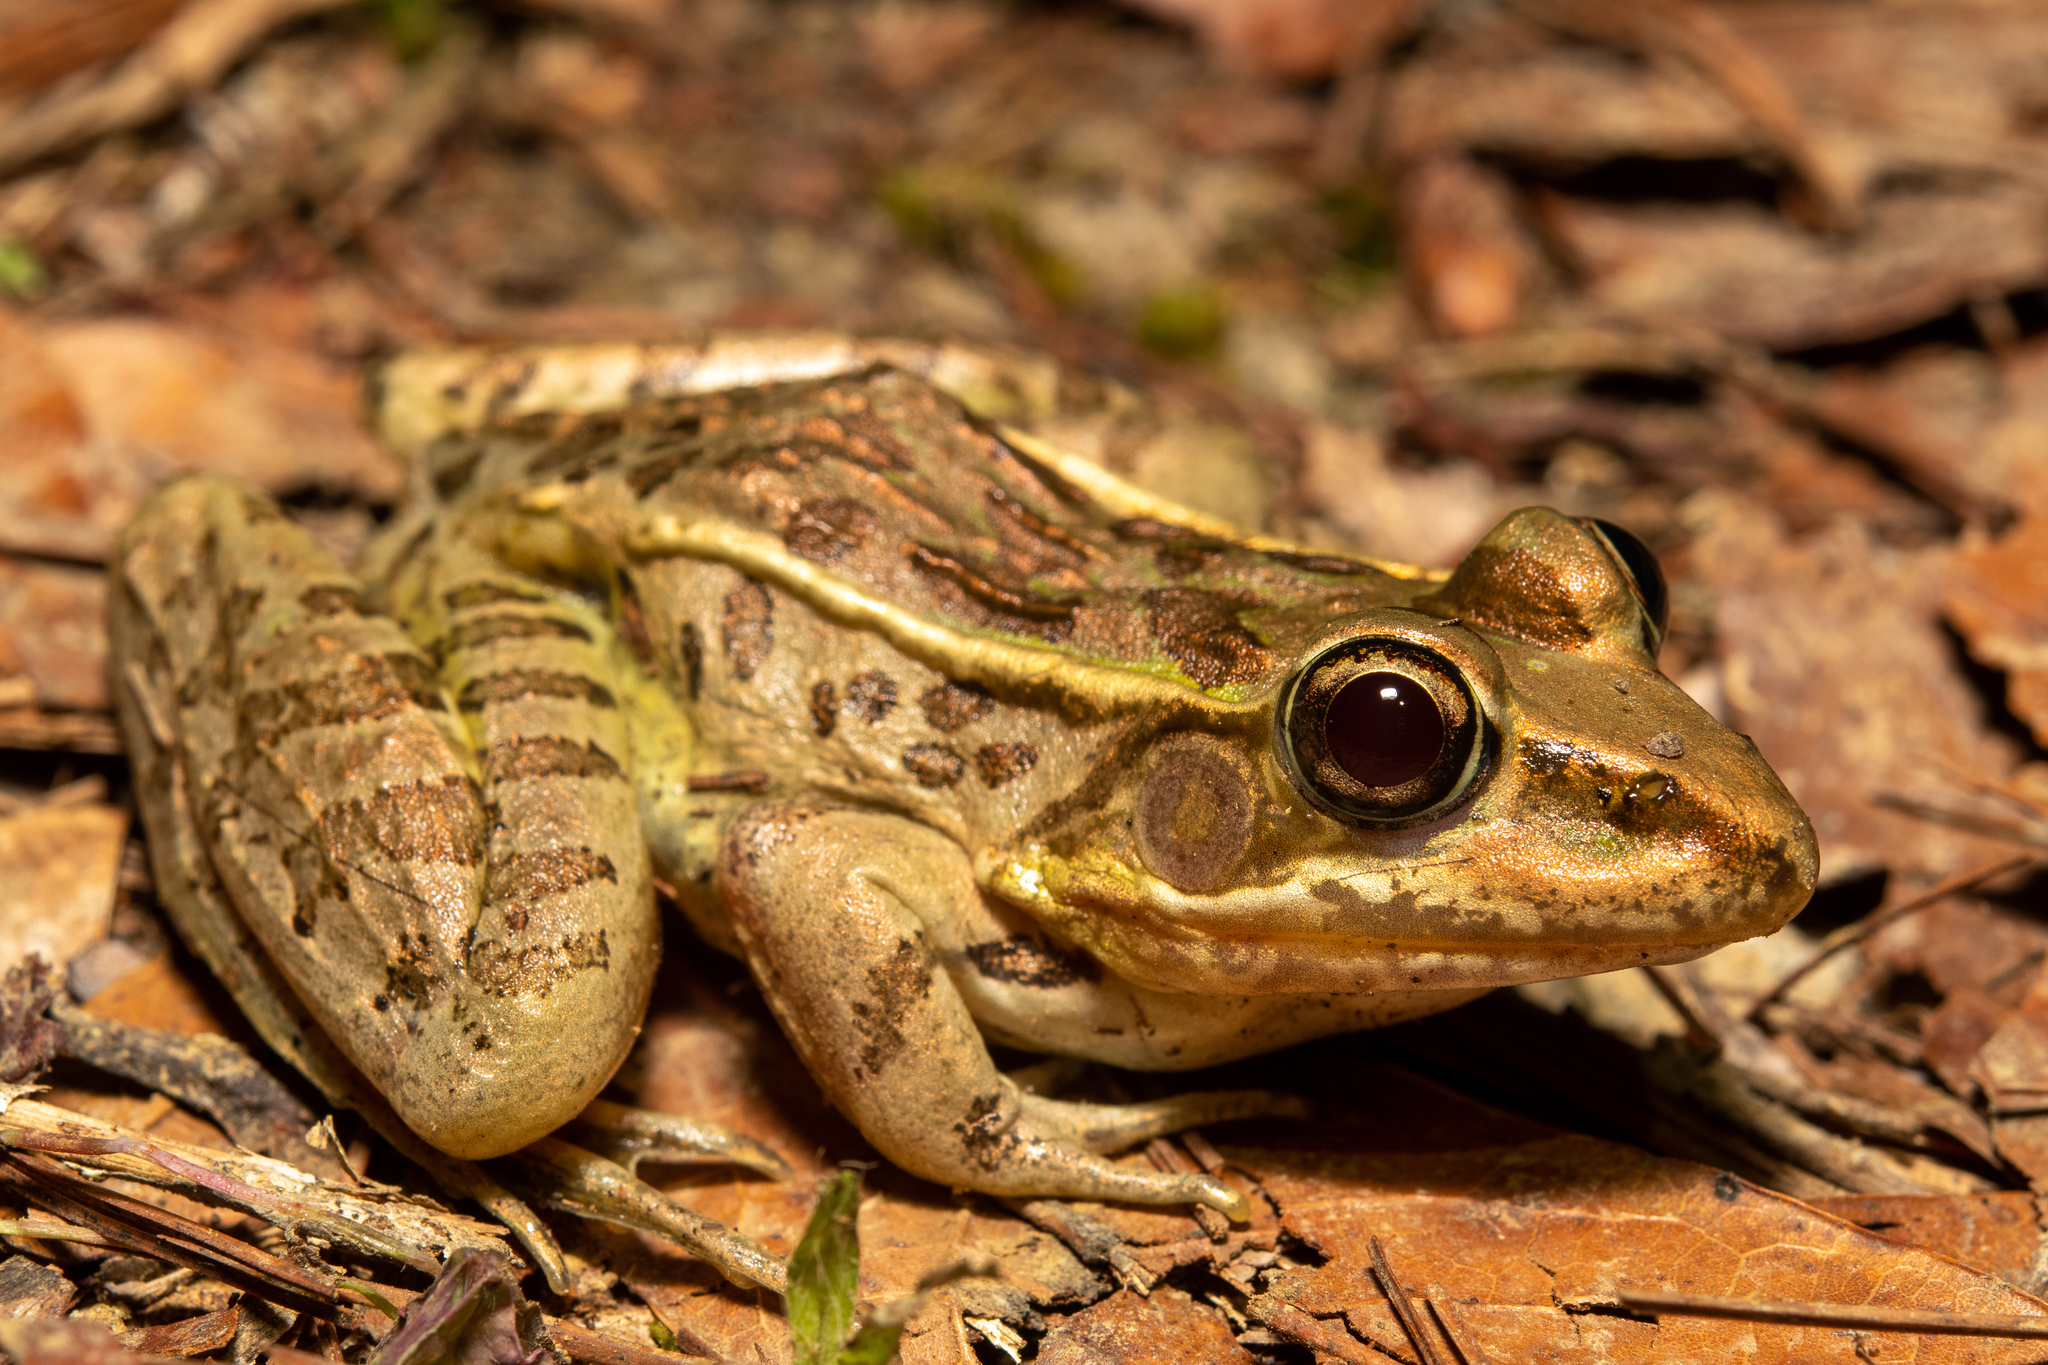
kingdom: Animalia
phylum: Chordata
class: Amphibia
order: Anura
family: Ranidae
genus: Lithobates
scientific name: Lithobates lenca
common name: Lenca leopard frog
